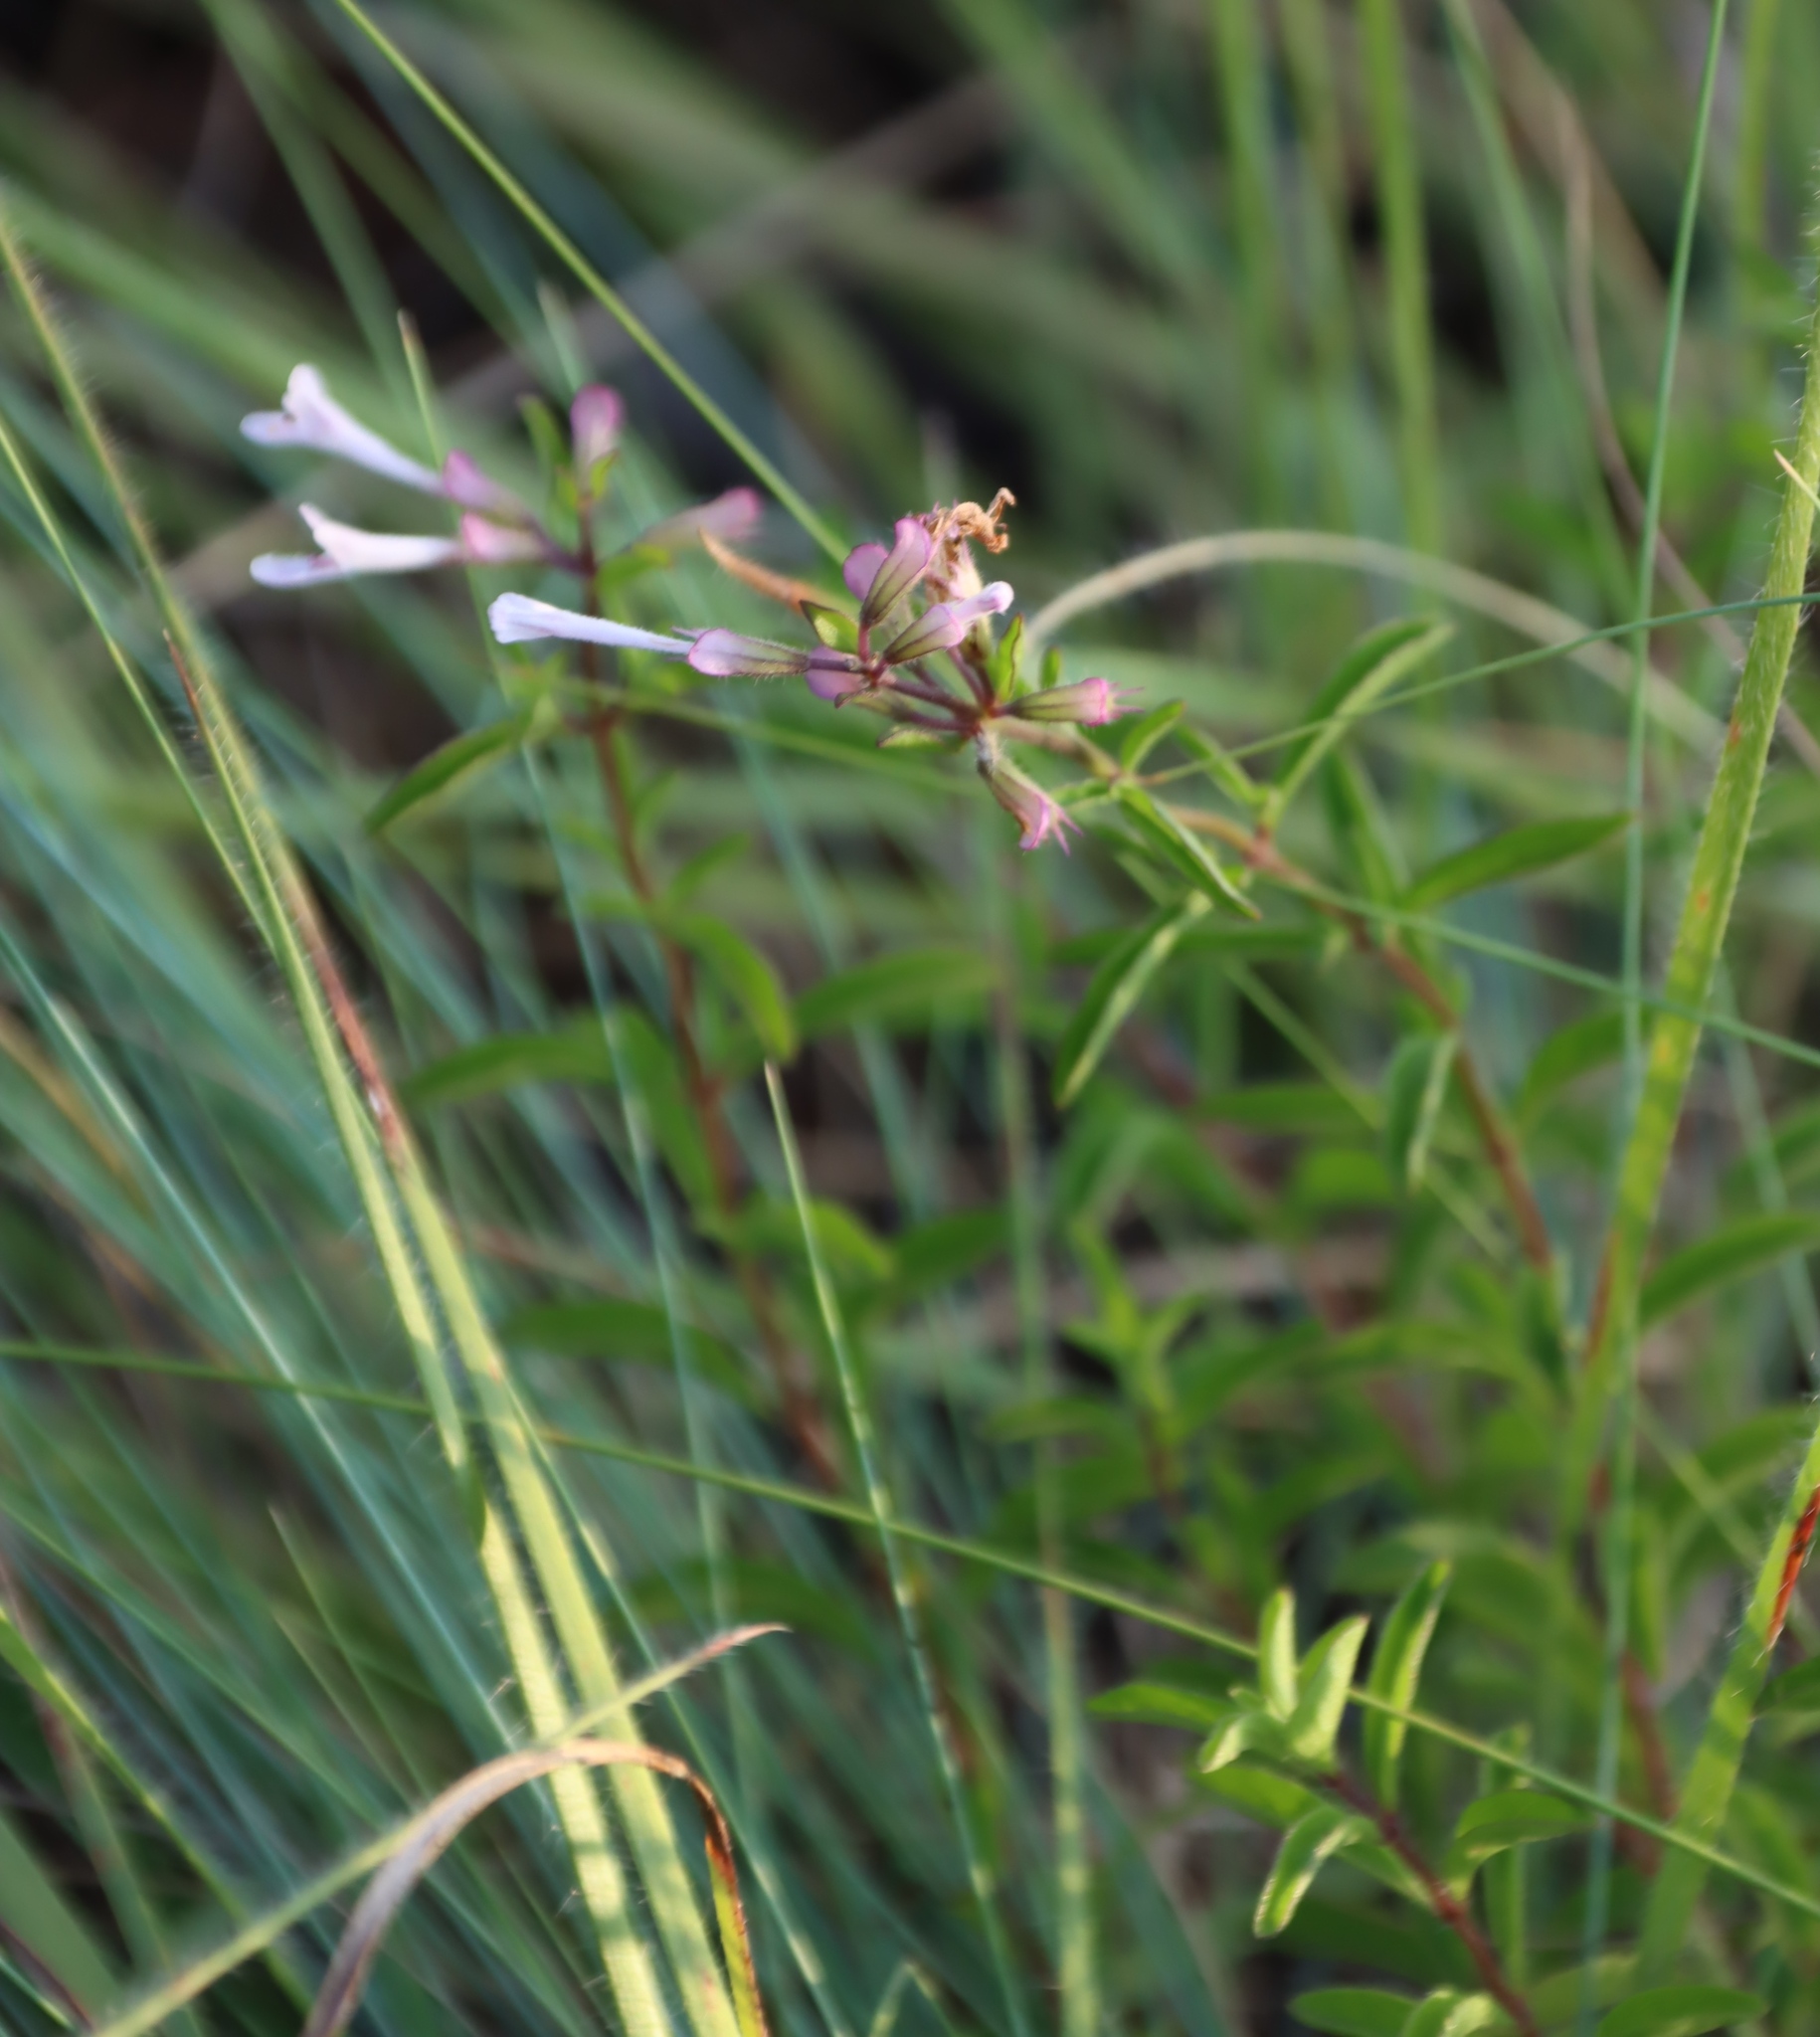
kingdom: Plantae
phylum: Tracheophyta
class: Magnoliopsida
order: Lamiales
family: Lamiaceae
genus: Syncolostemon
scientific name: Syncolostemon pretoriae
